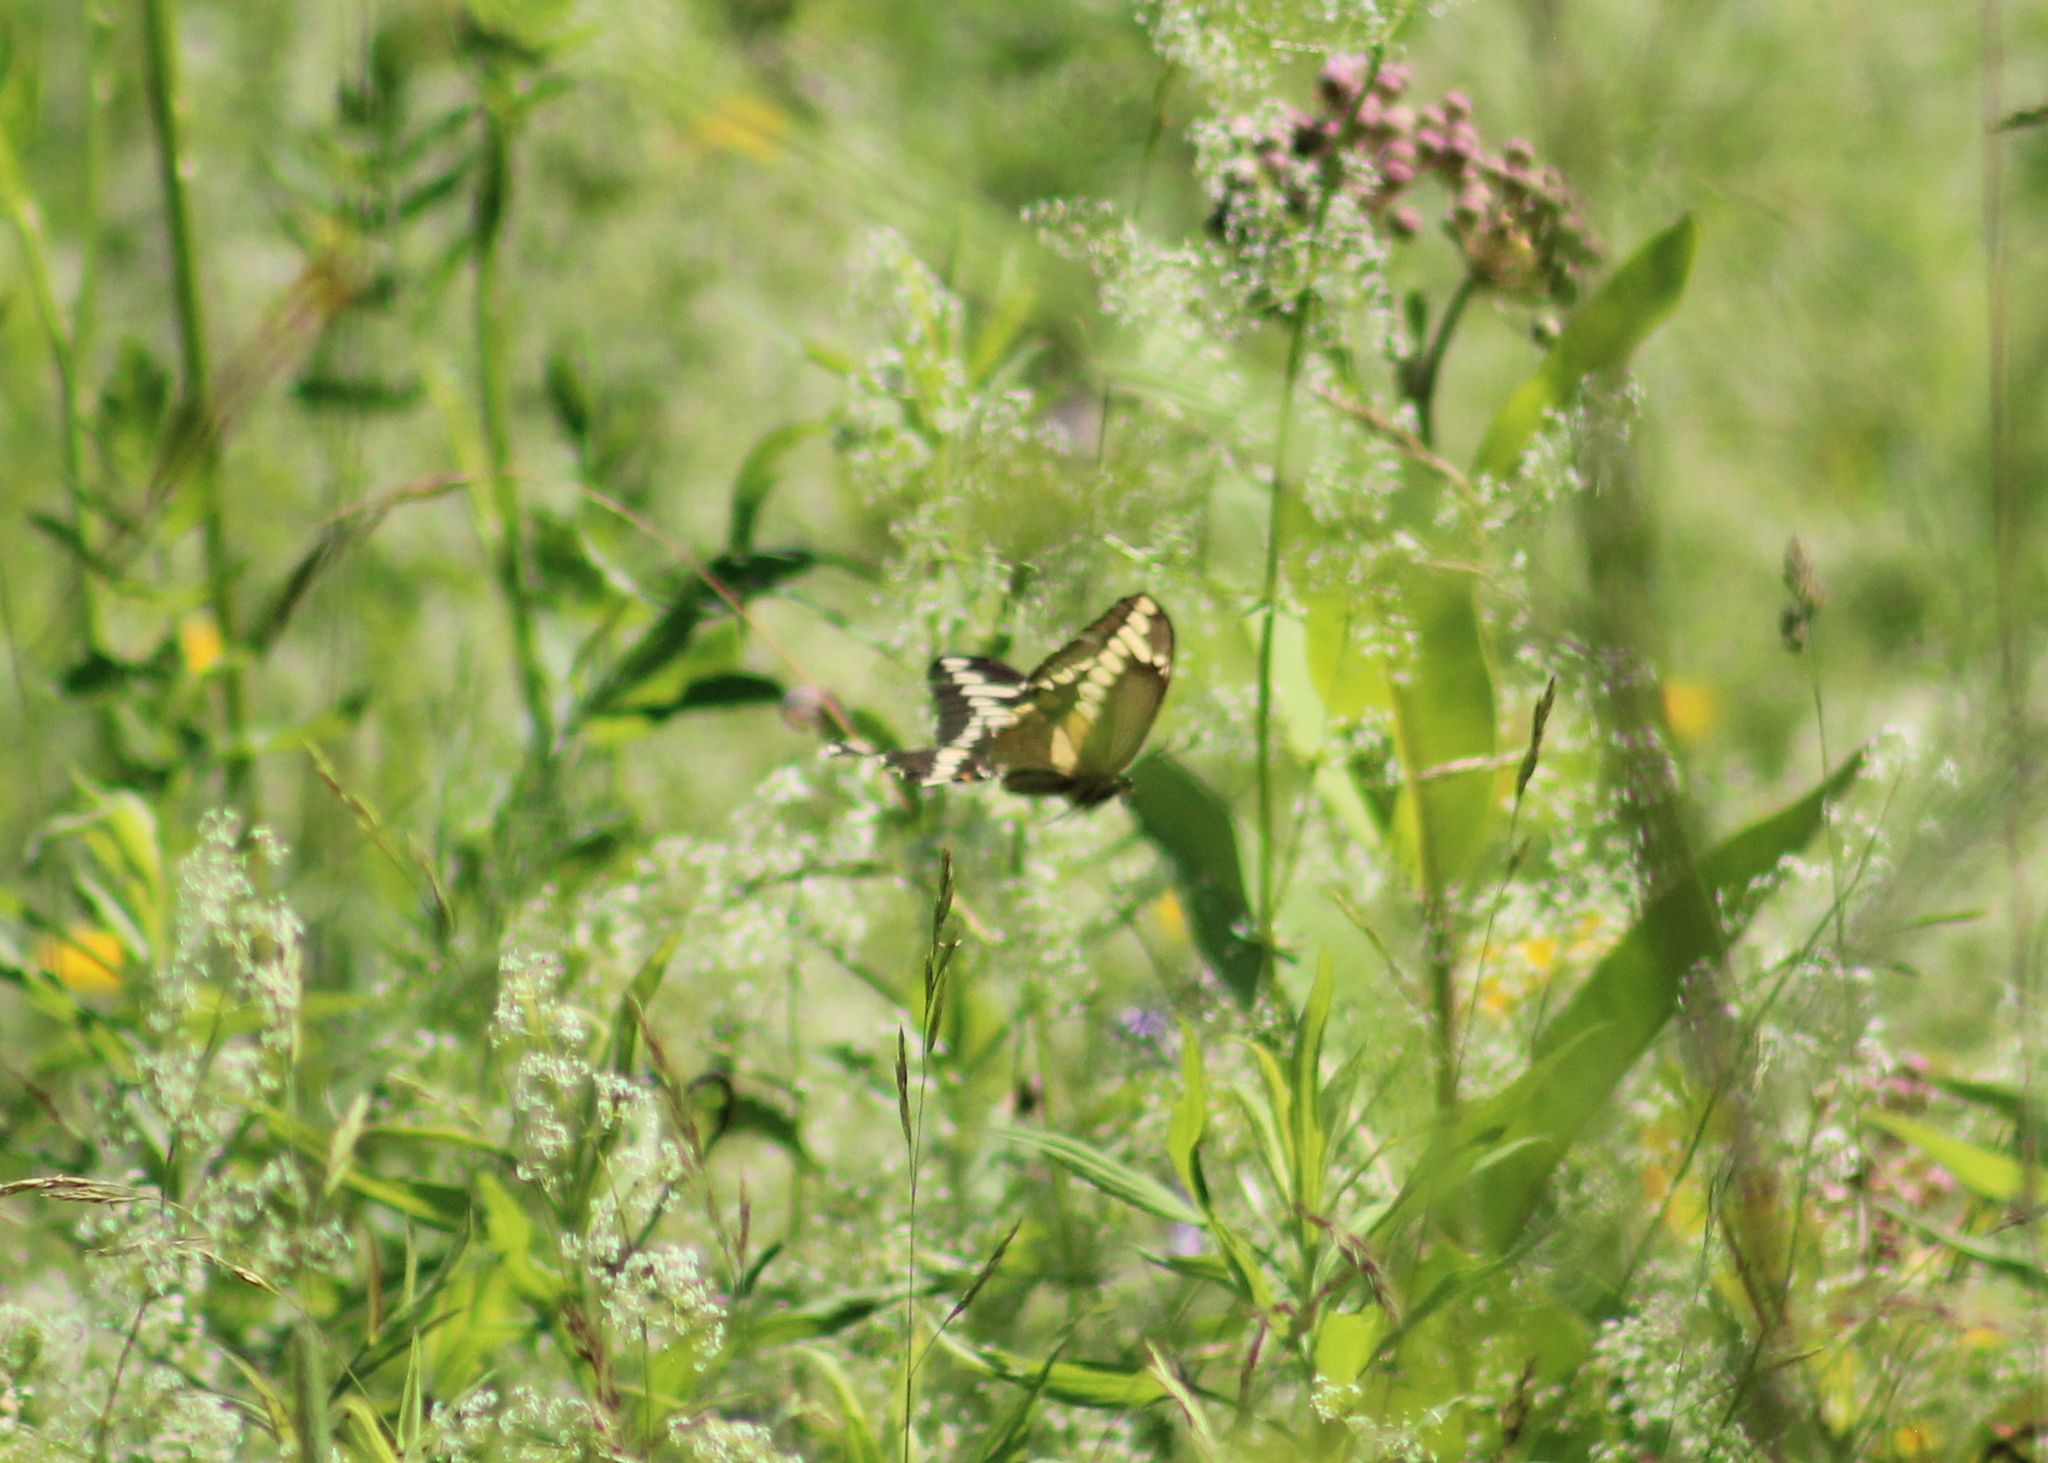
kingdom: Animalia
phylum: Arthropoda
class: Insecta
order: Lepidoptera
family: Papilionidae
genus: Papilio
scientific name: Papilio cresphontes
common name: Giant swallowtail
